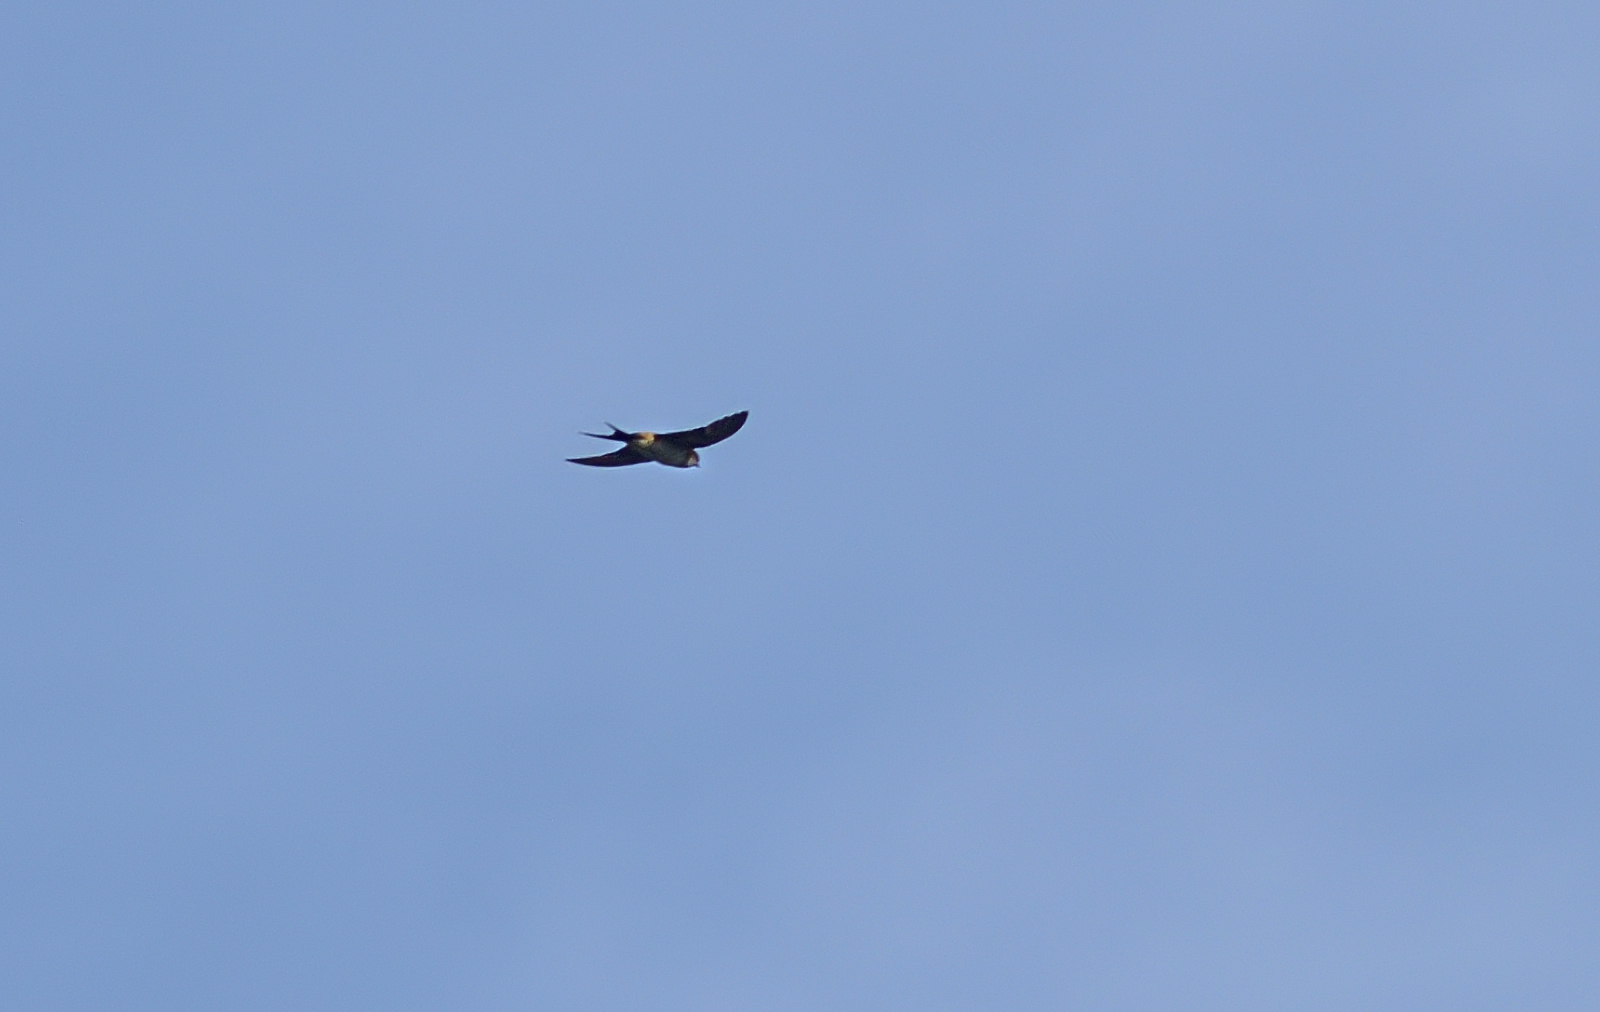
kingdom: Animalia
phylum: Chordata
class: Aves
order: Passeriformes
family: Hirundinidae
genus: Cecropis
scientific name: Cecropis daurica
